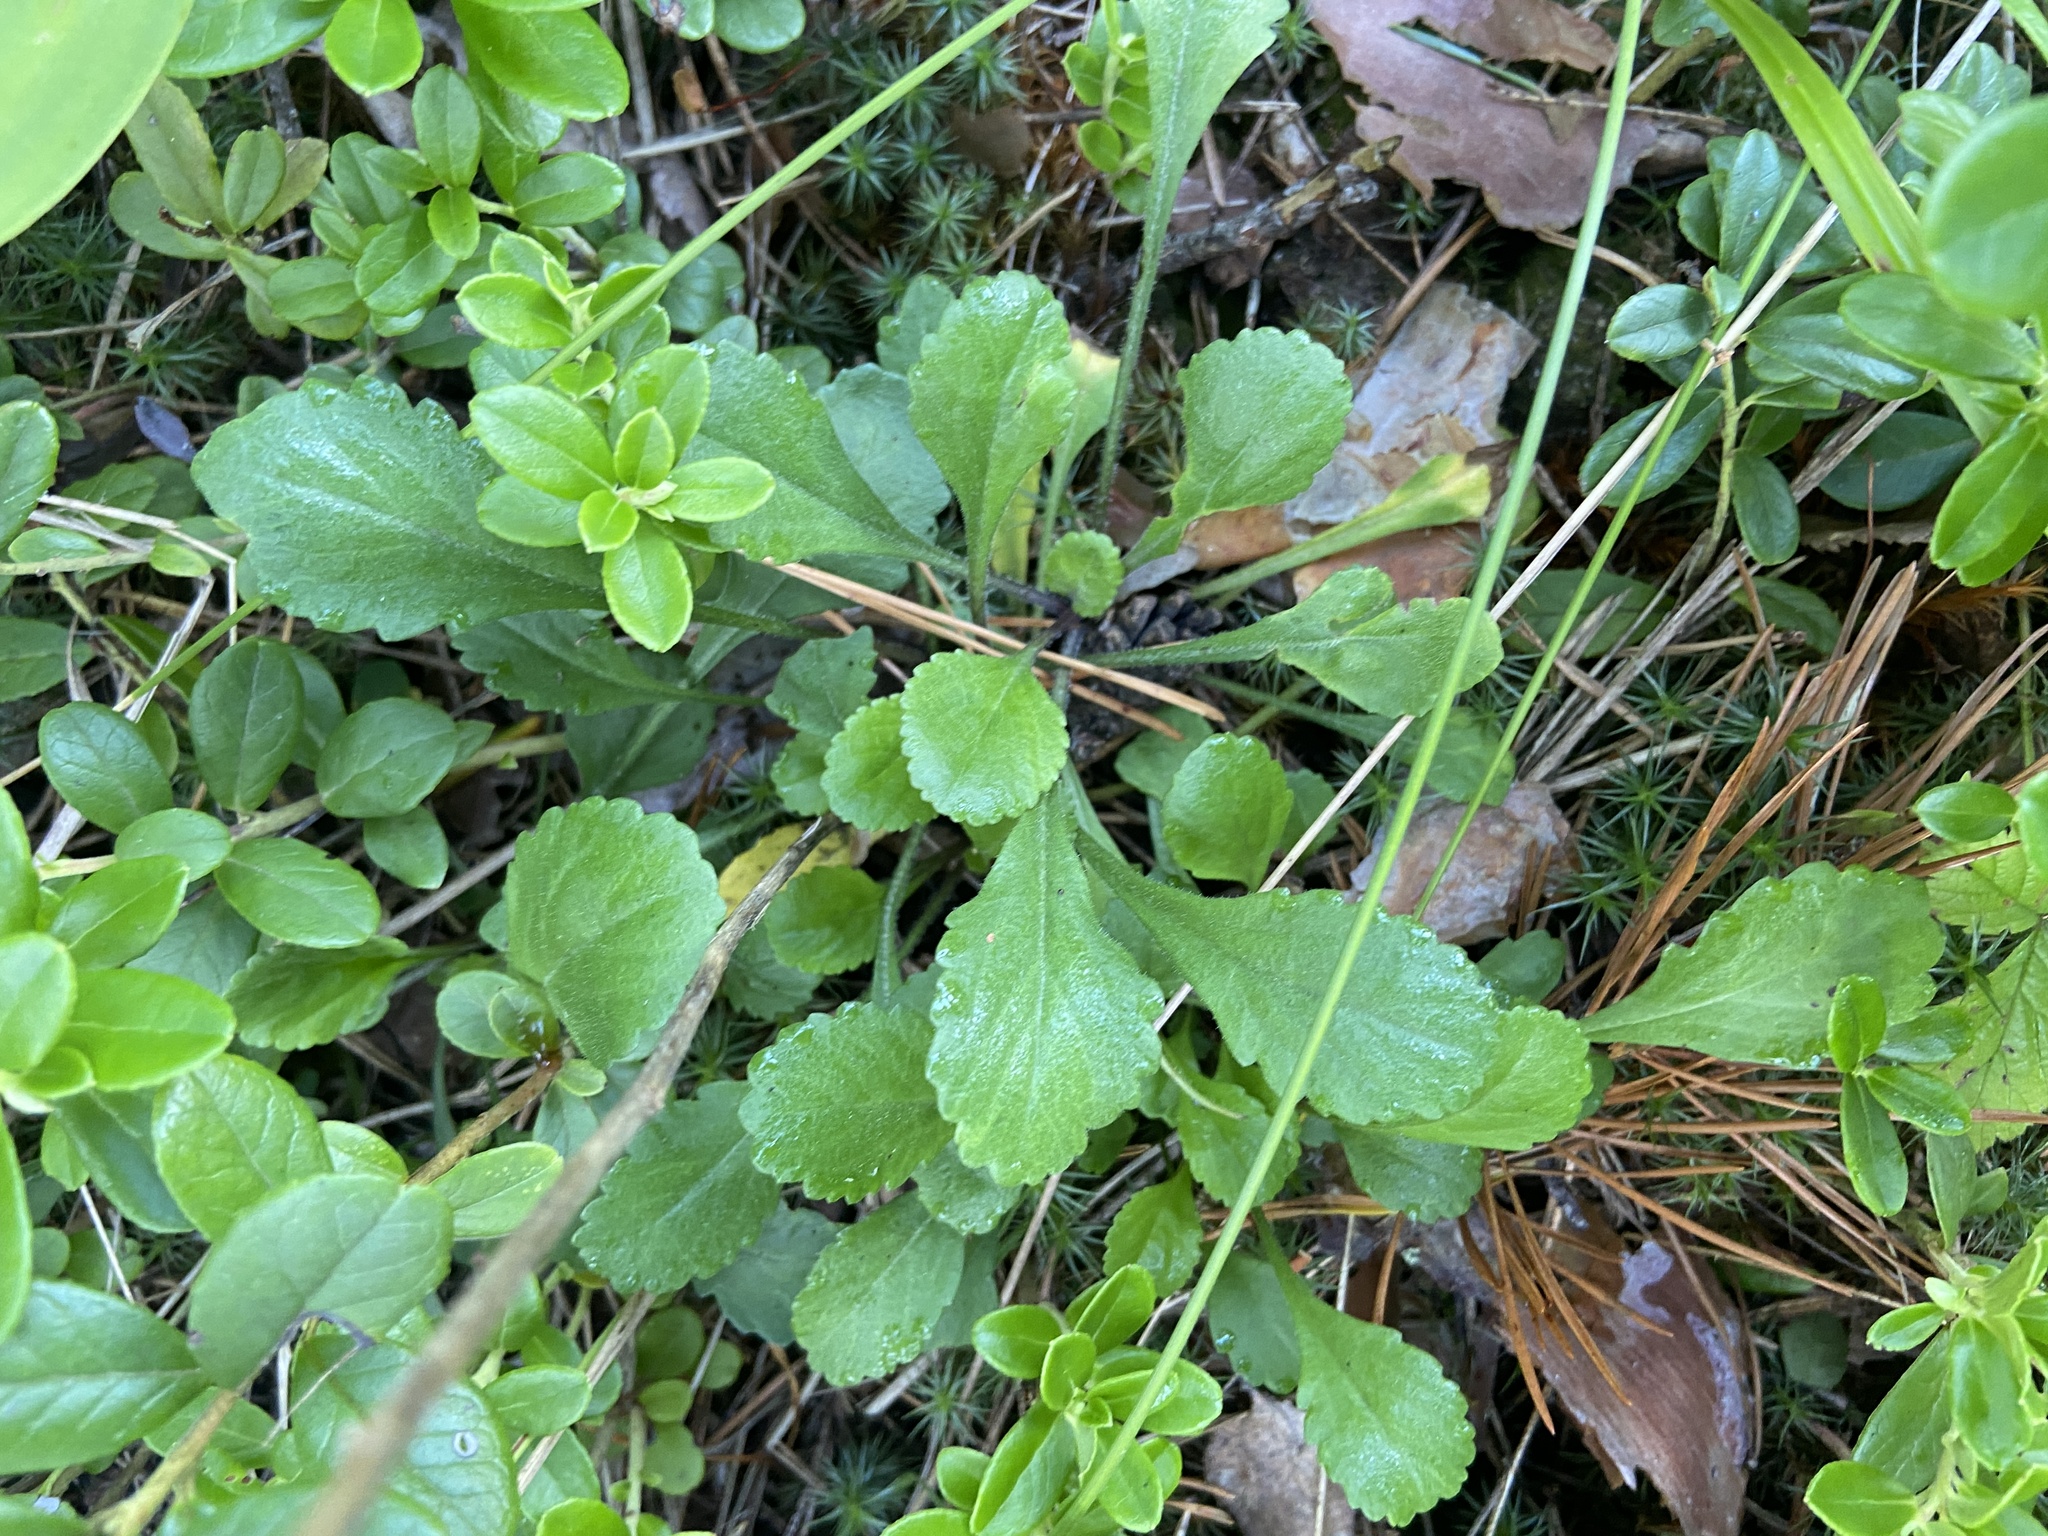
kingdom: Plantae
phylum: Tracheophyta
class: Magnoliopsida
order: Asterales
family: Asteraceae
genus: Leucanthemum
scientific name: Leucanthemum vulgare
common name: Oxeye daisy
